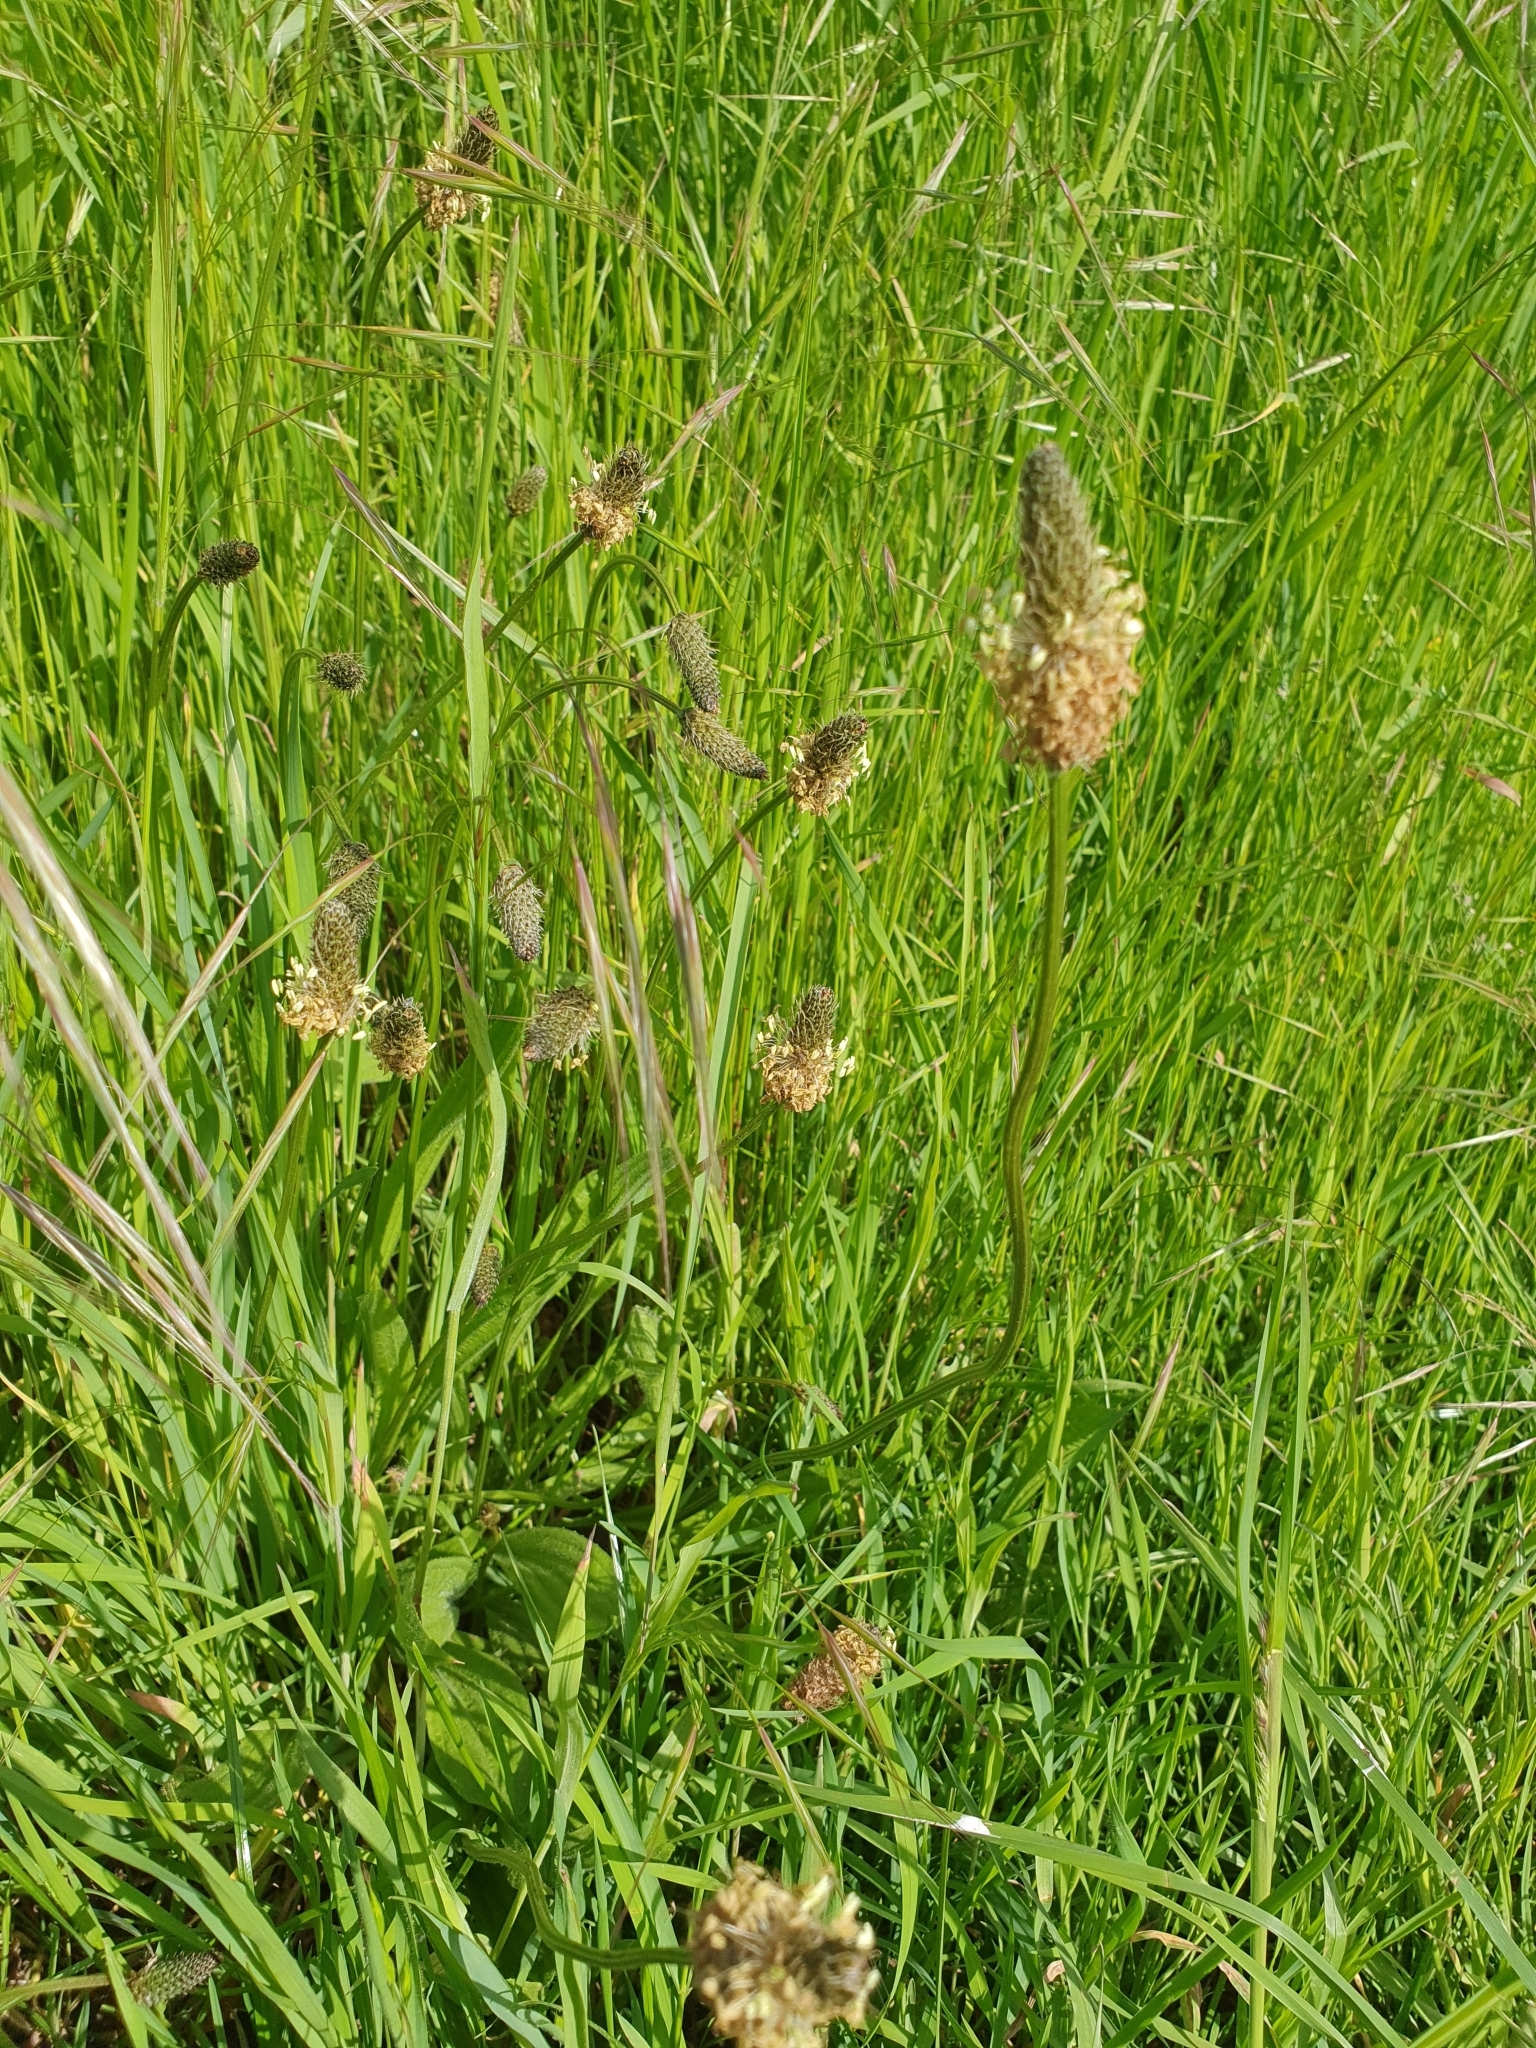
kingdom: Plantae
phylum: Tracheophyta
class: Magnoliopsida
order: Lamiales
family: Plantaginaceae
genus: Plantago
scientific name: Plantago lanceolata
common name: Ribwort plantain
